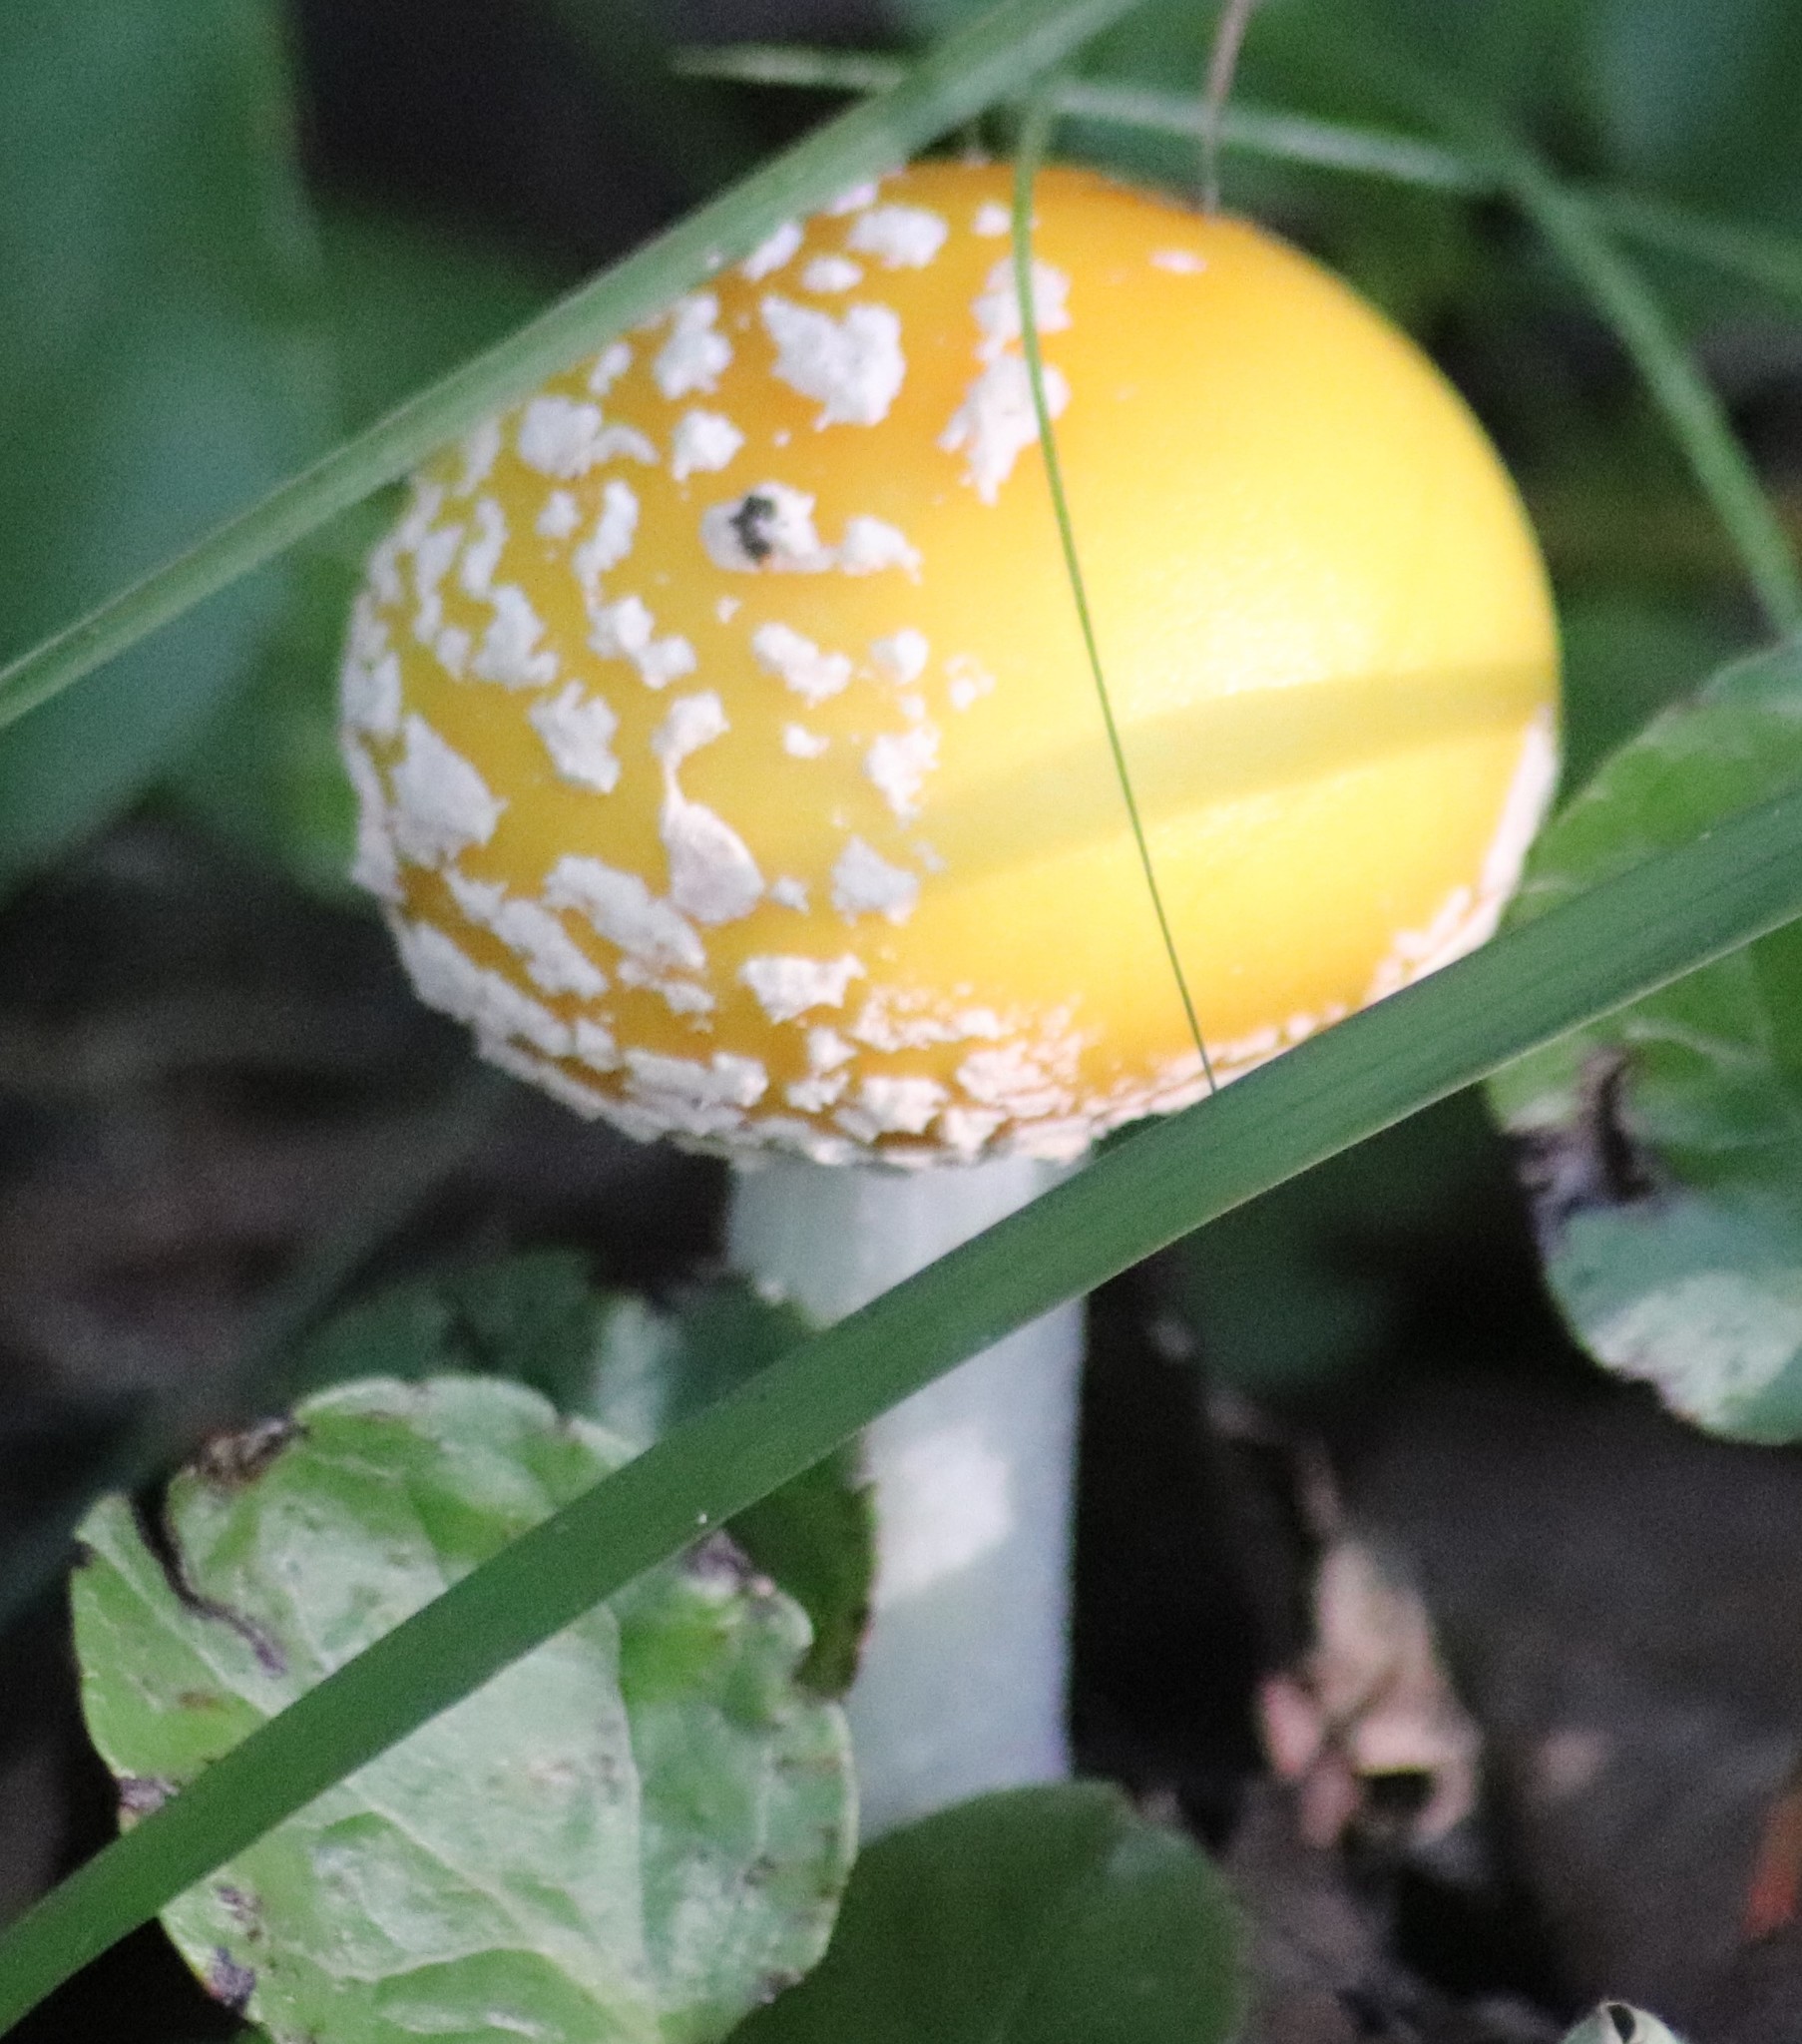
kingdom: Fungi
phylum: Basidiomycota
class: Agaricomycetes
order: Agaricales
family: Amanitaceae
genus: Amanita
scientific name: Amanita muscaria
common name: Fly agaric
